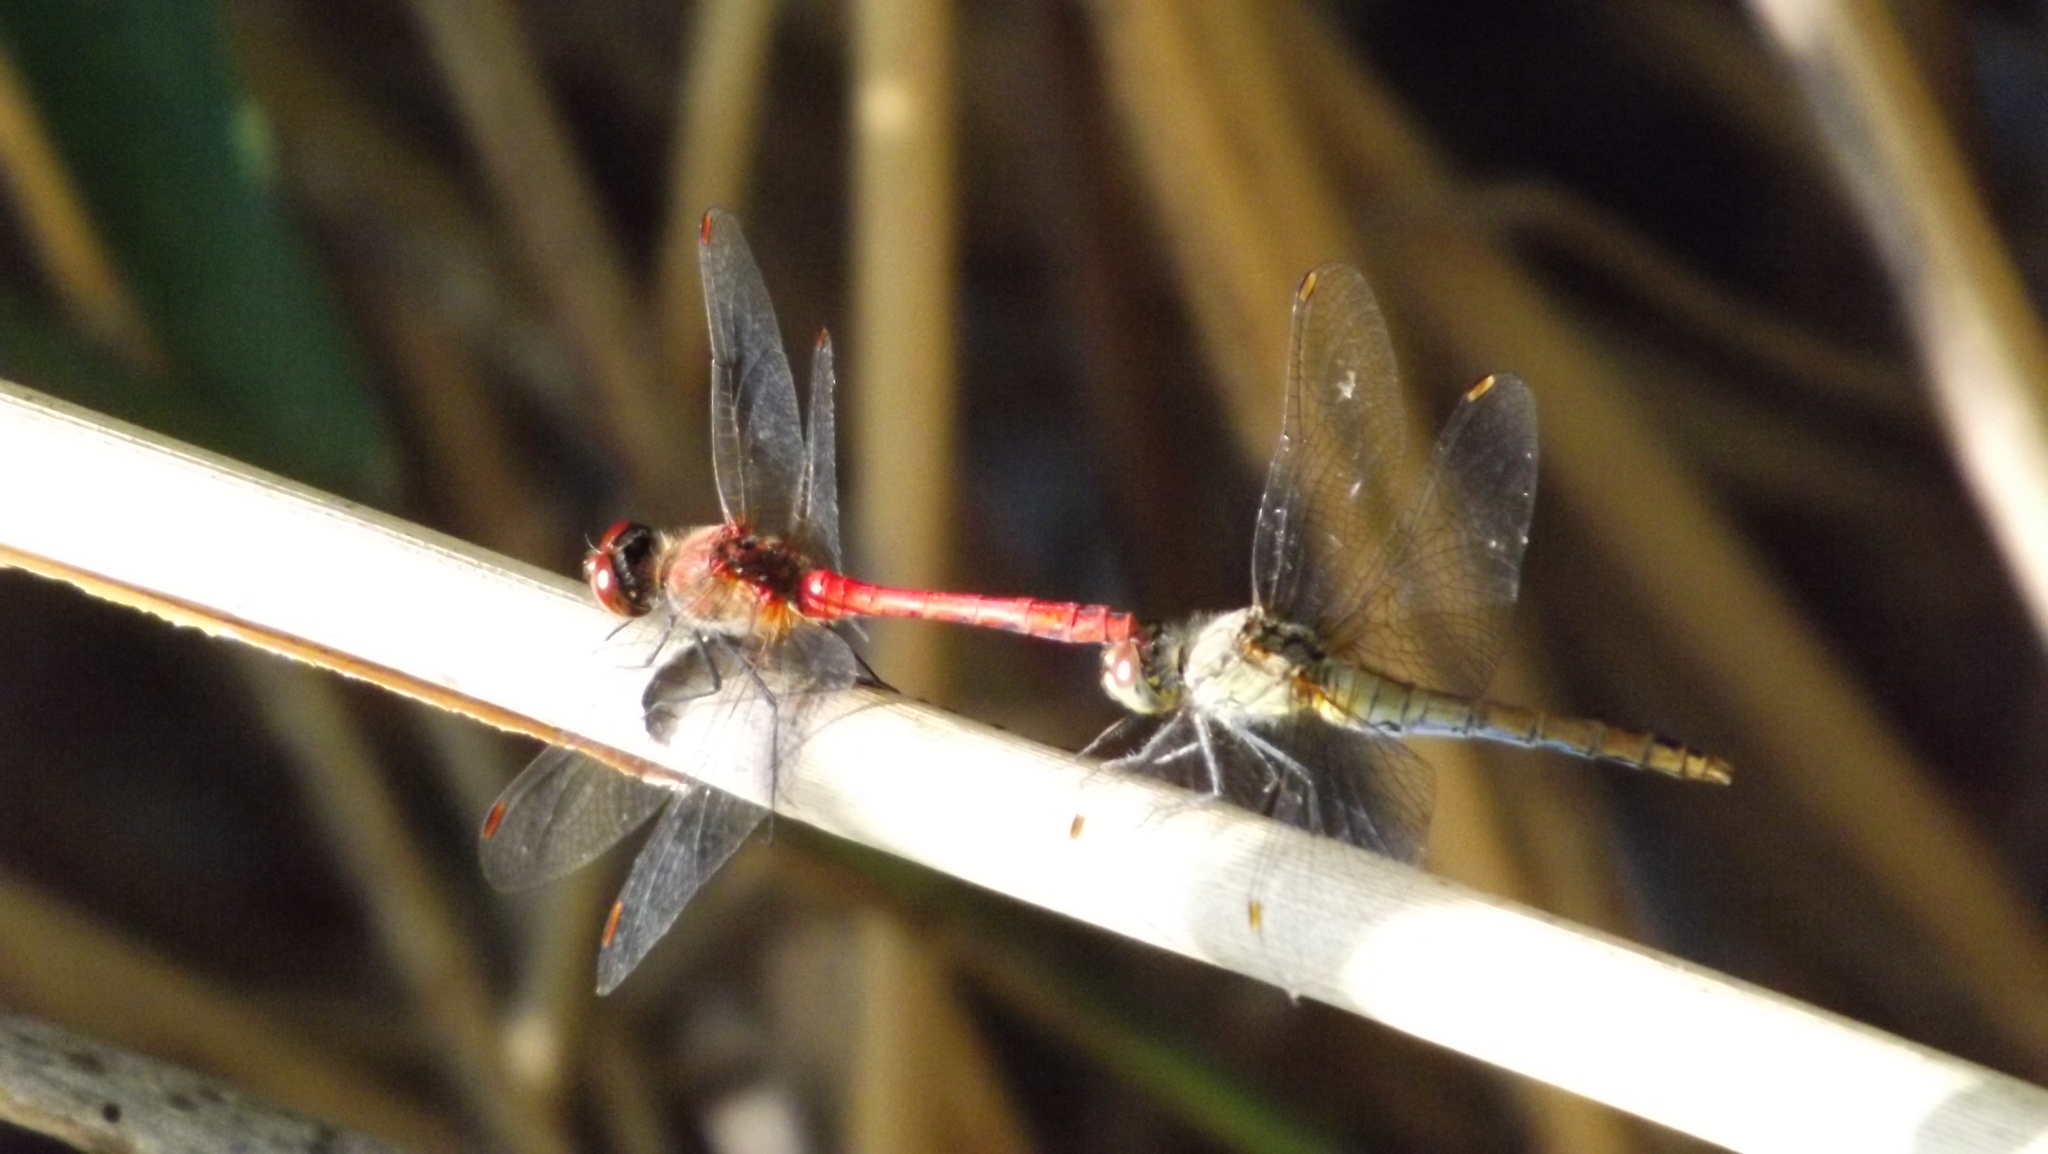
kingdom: Animalia
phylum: Arthropoda
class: Insecta
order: Odonata
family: Libellulidae
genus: Sympetrum
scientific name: Sympetrum sanguineum
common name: Ruddy darter
